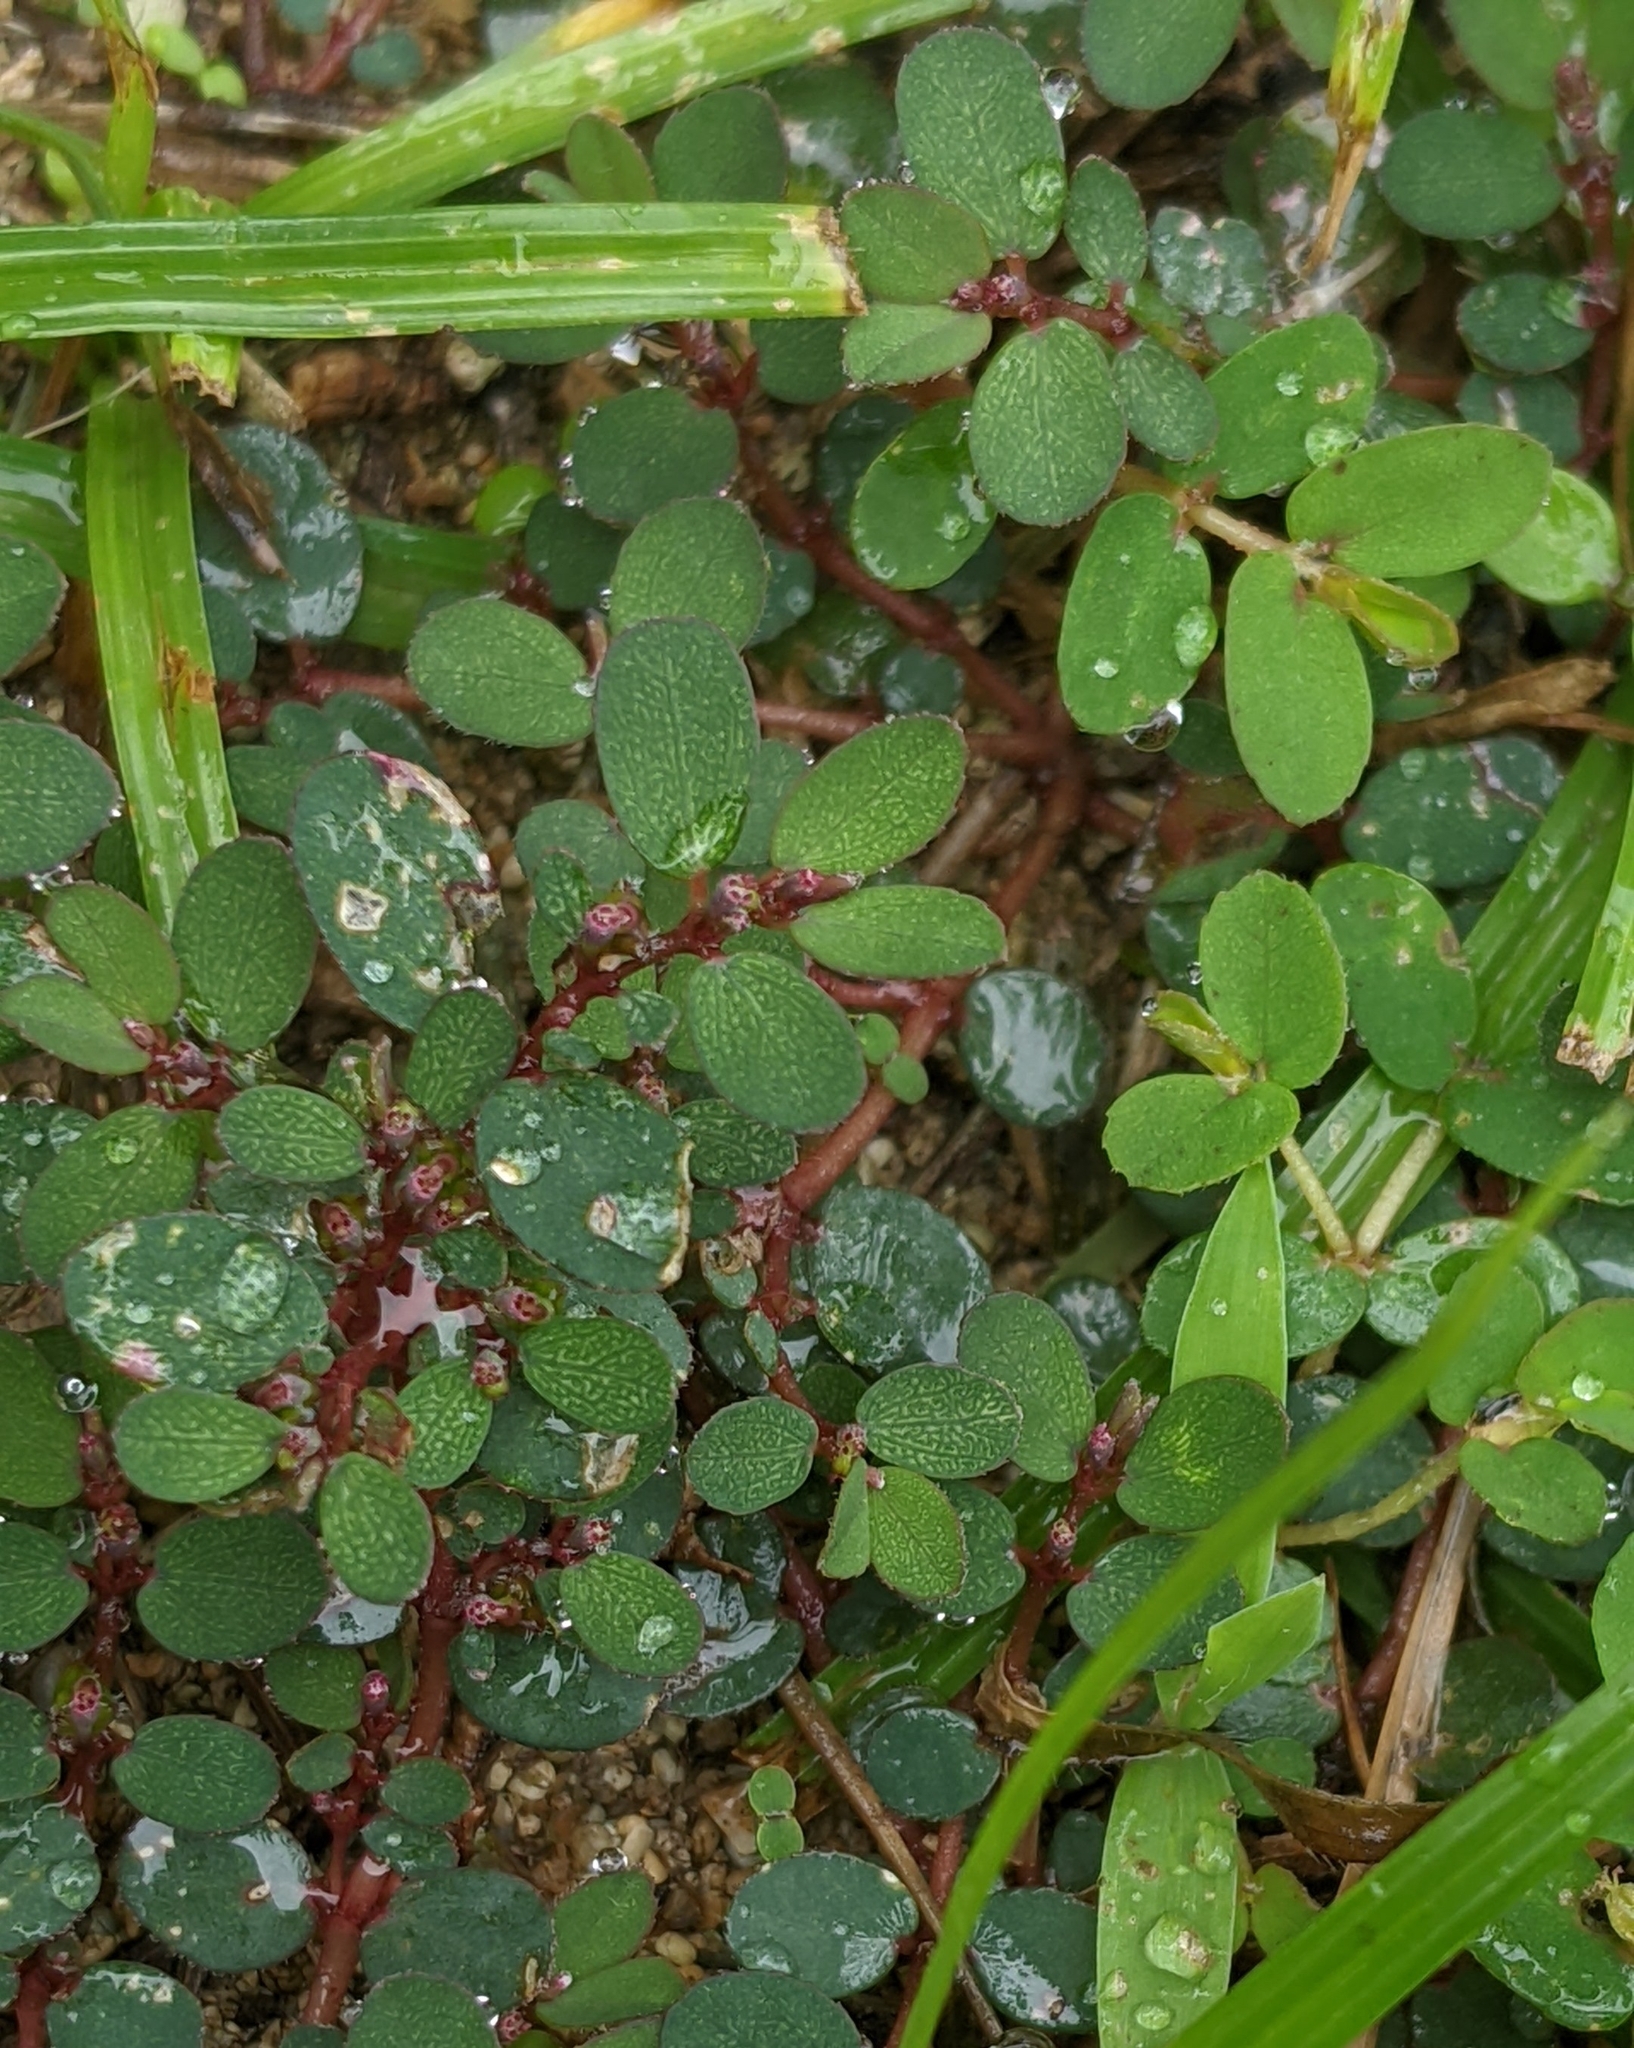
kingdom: Plantae
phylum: Tracheophyta
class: Magnoliopsida
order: Malpighiales
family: Euphorbiaceae
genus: Euphorbia
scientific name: Euphorbia prostrata
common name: Prostrate sandmat
